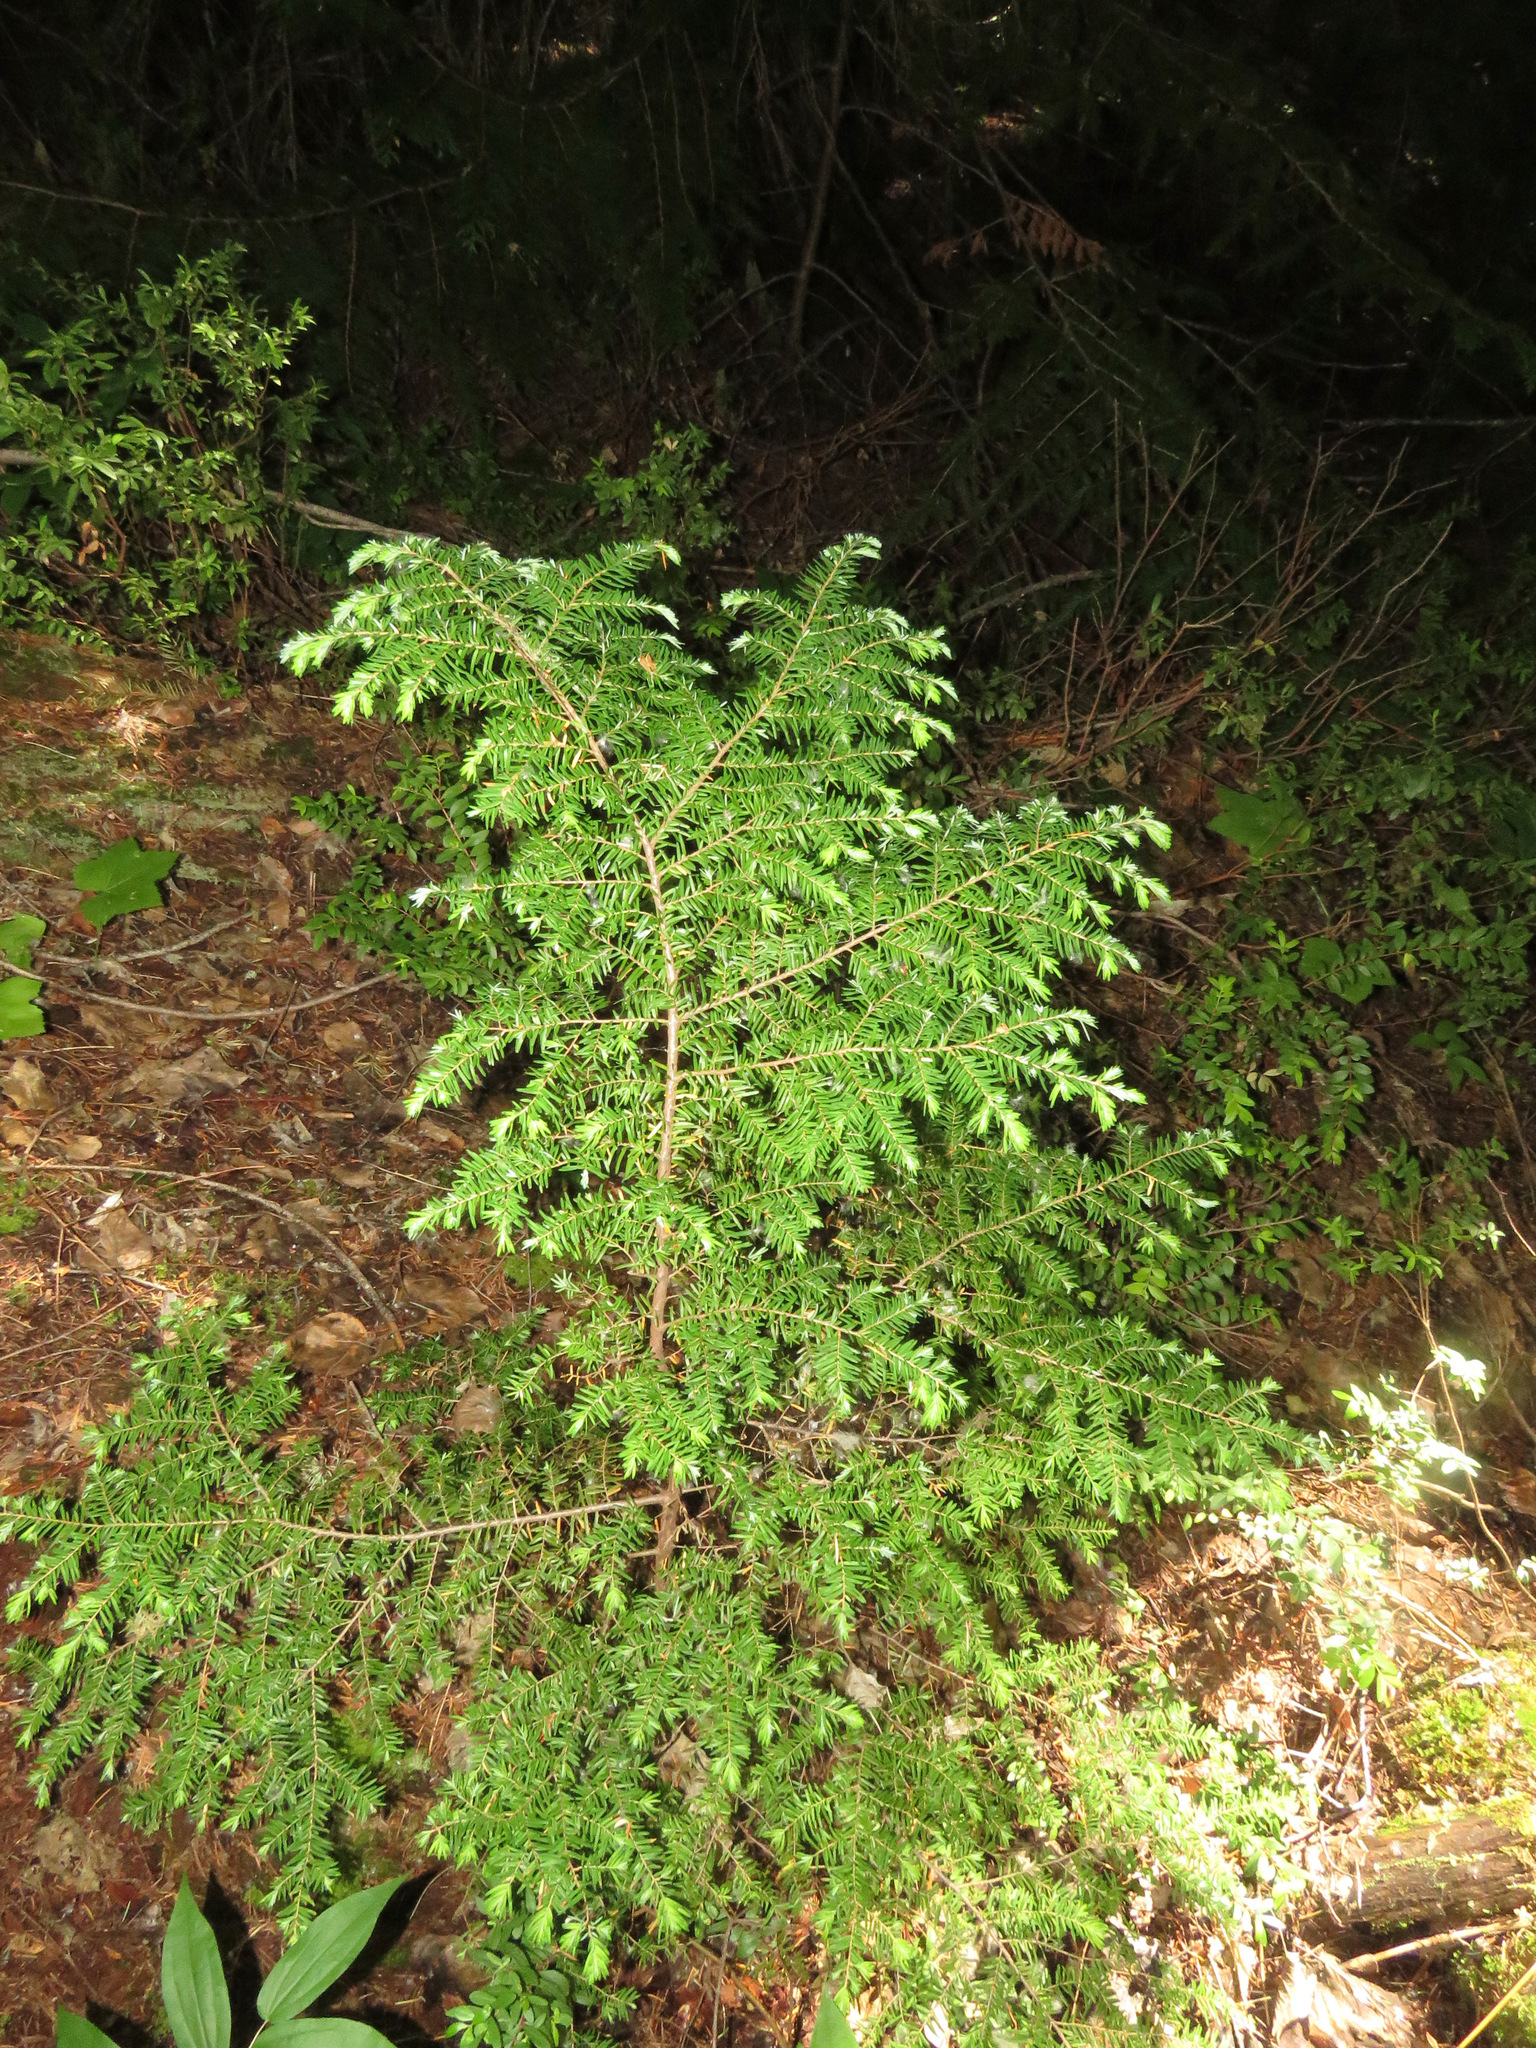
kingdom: Plantae
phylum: Tracheophyta
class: Pinopsida
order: Pinales
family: Pinaceae
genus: Tsuga
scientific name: Tsuga heterophylla
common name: Western hemlock
